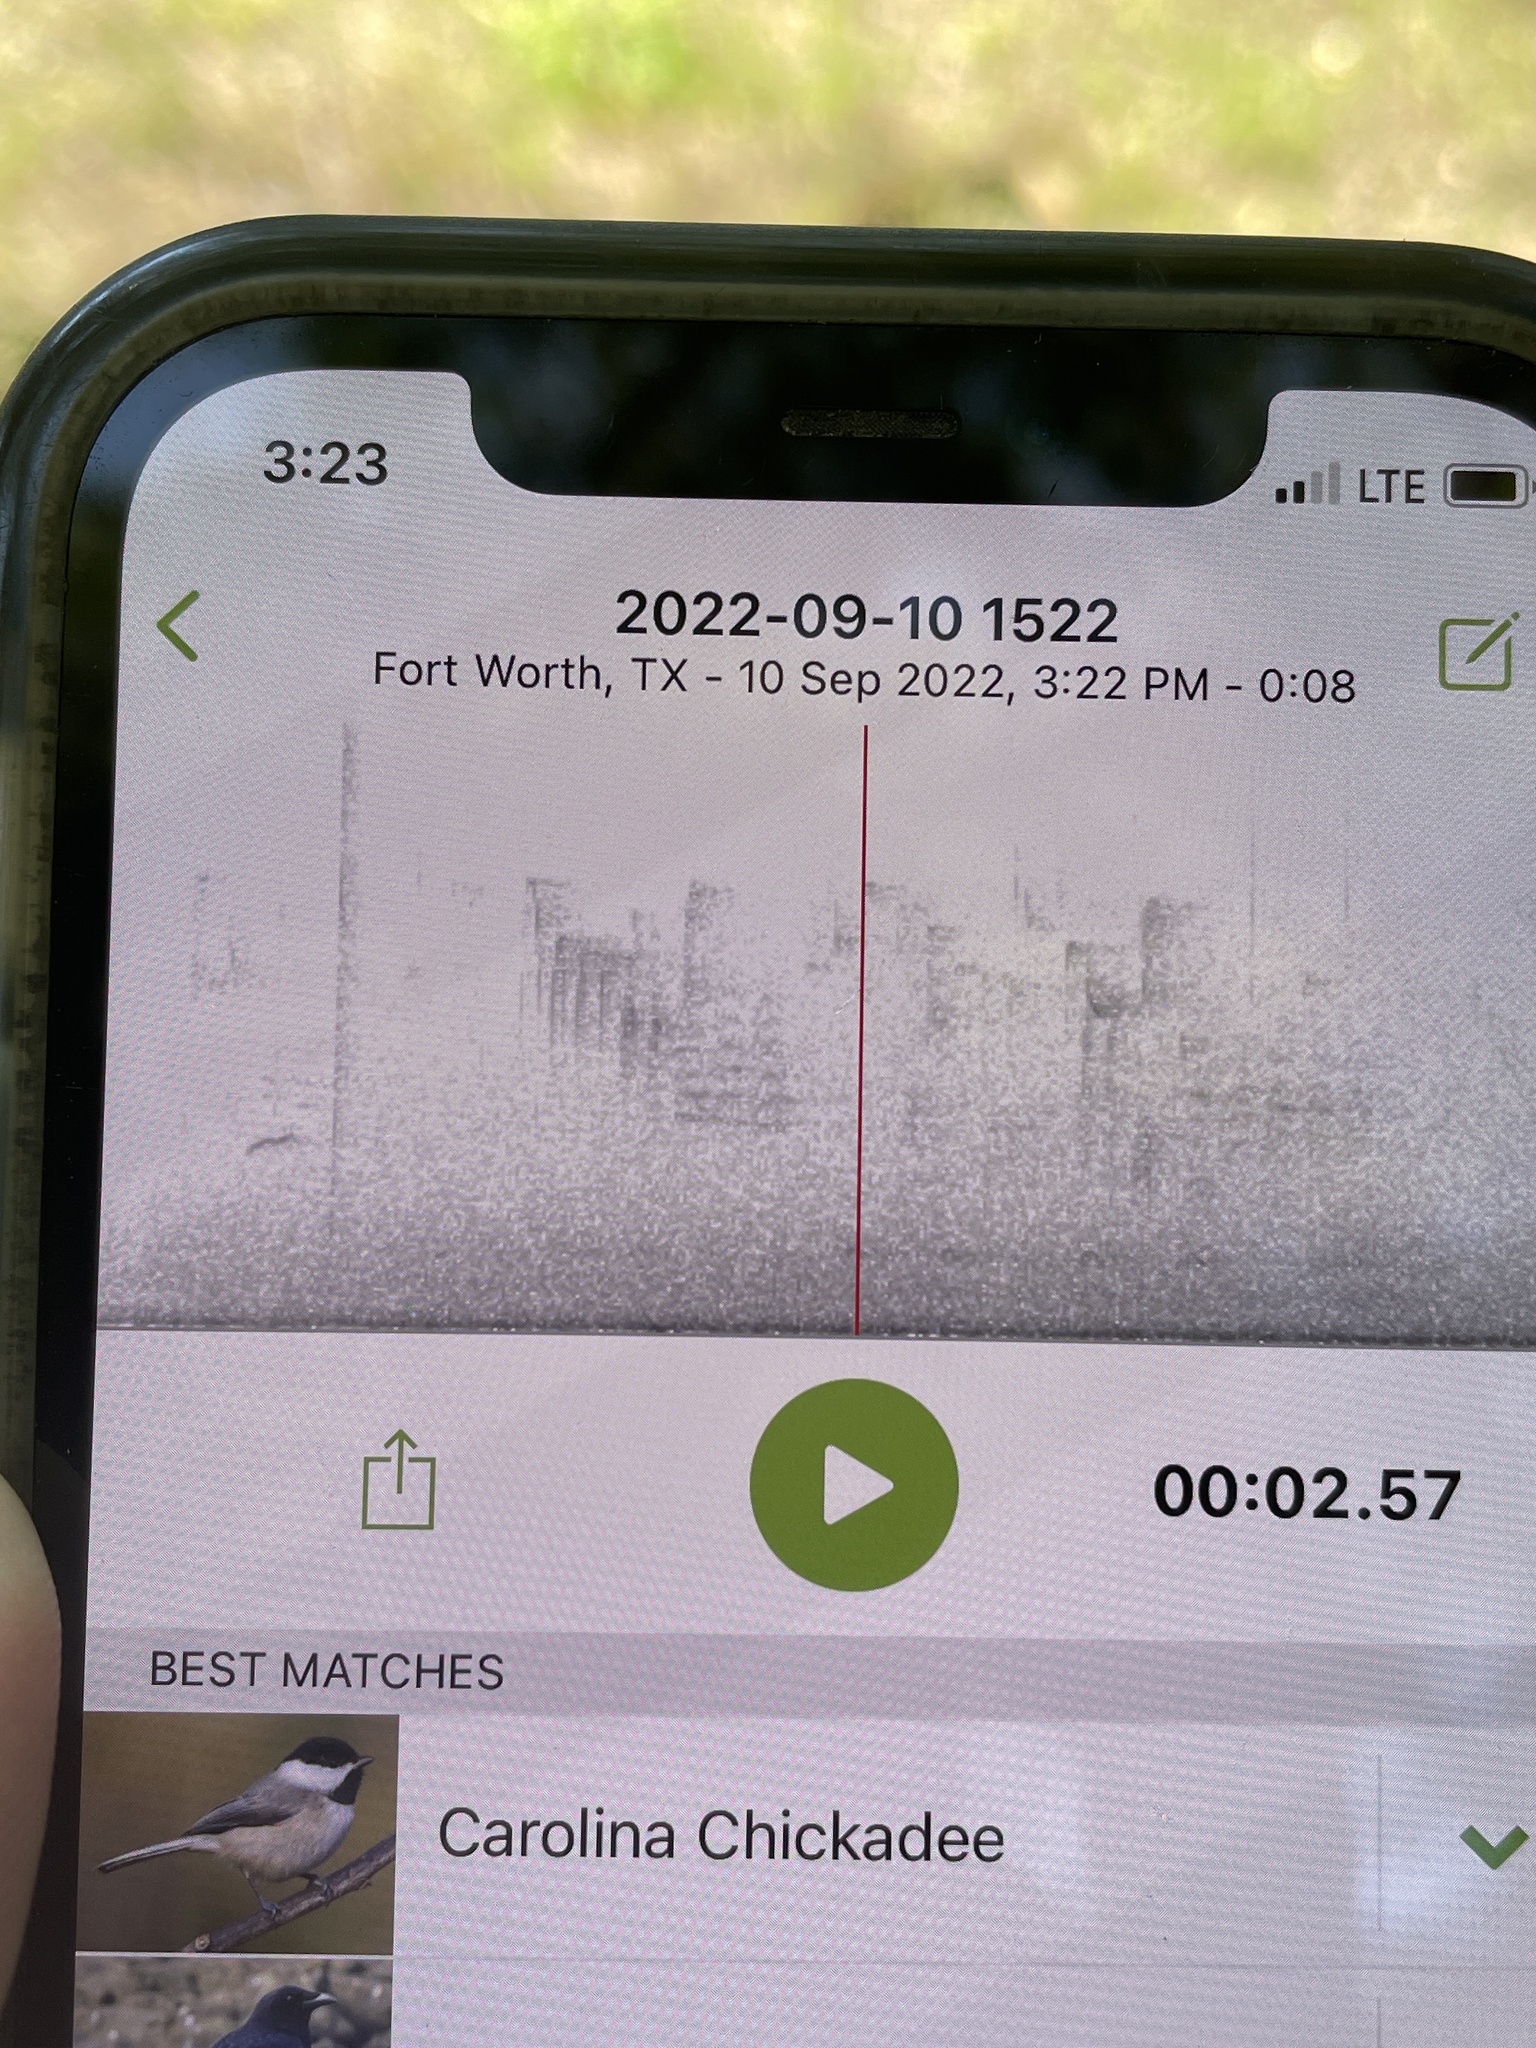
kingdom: Animalia
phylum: Chordata
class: Aves
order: Passeriformes
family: Paridae
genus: Poecile
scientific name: Poecile carolinensis
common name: Carolina chickadee
